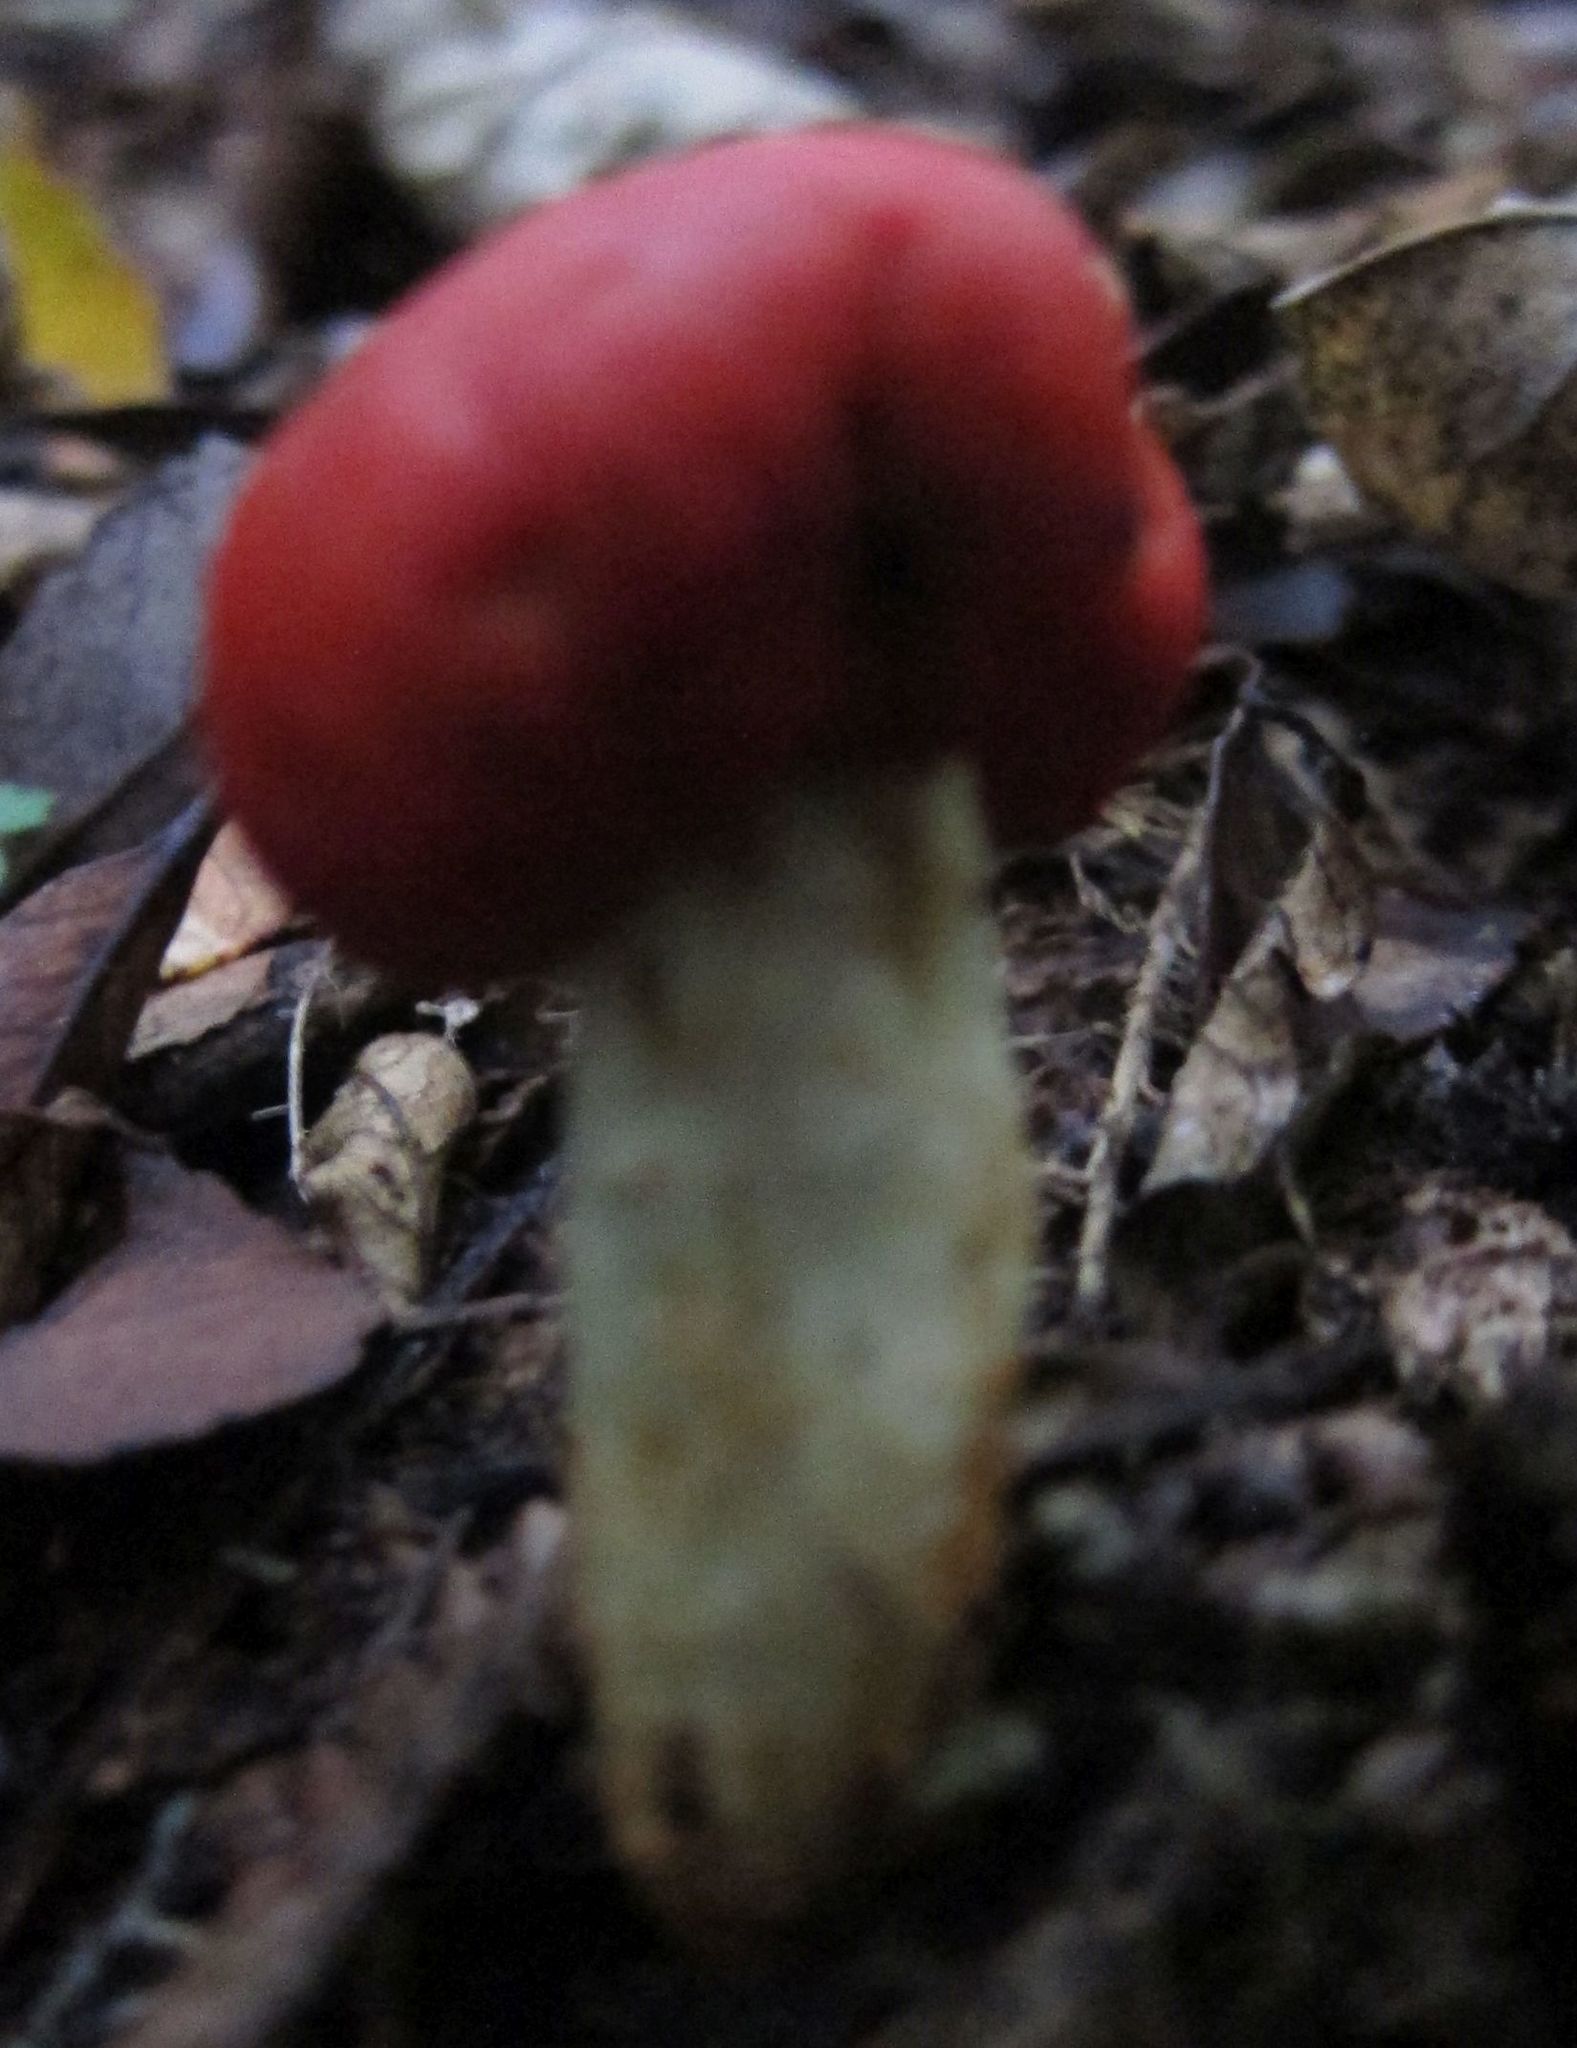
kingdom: Fungi
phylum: Basidiomycota
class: Agaricomycetes
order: Agaricales
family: Strophariaceae
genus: Leratiomyces
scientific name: Leratiomyces erythrocephalus
